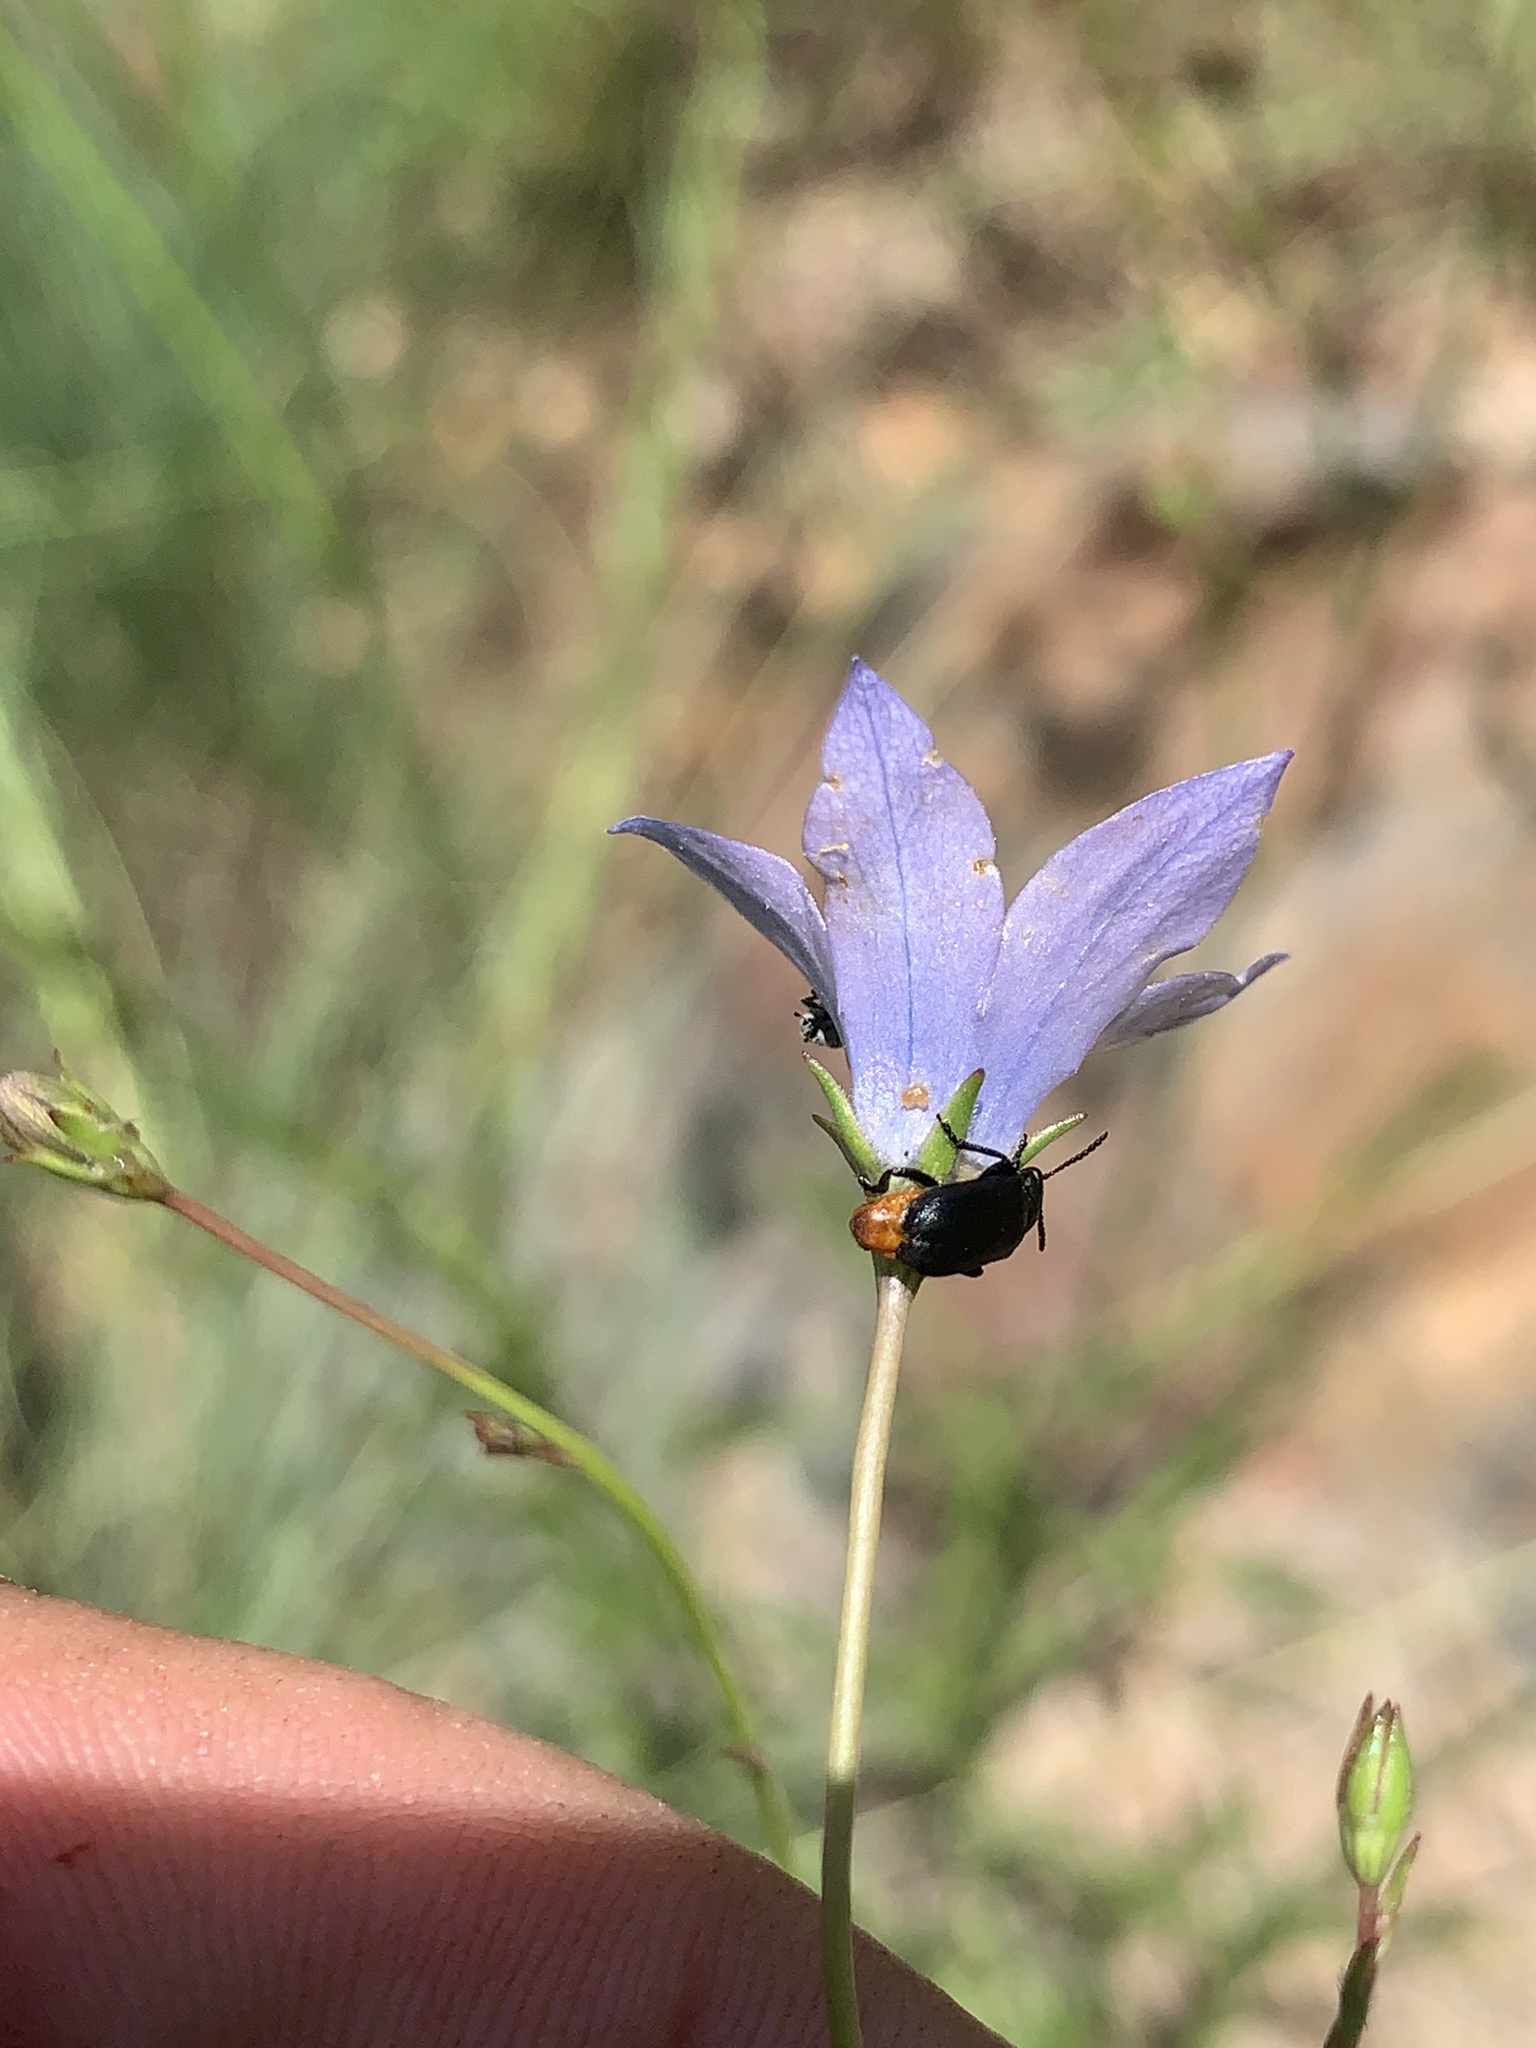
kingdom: Animalia
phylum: Arthropoda
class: Insecta
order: Coleoptera
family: Chrysomelidae
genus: Gastrida
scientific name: Gastrida
